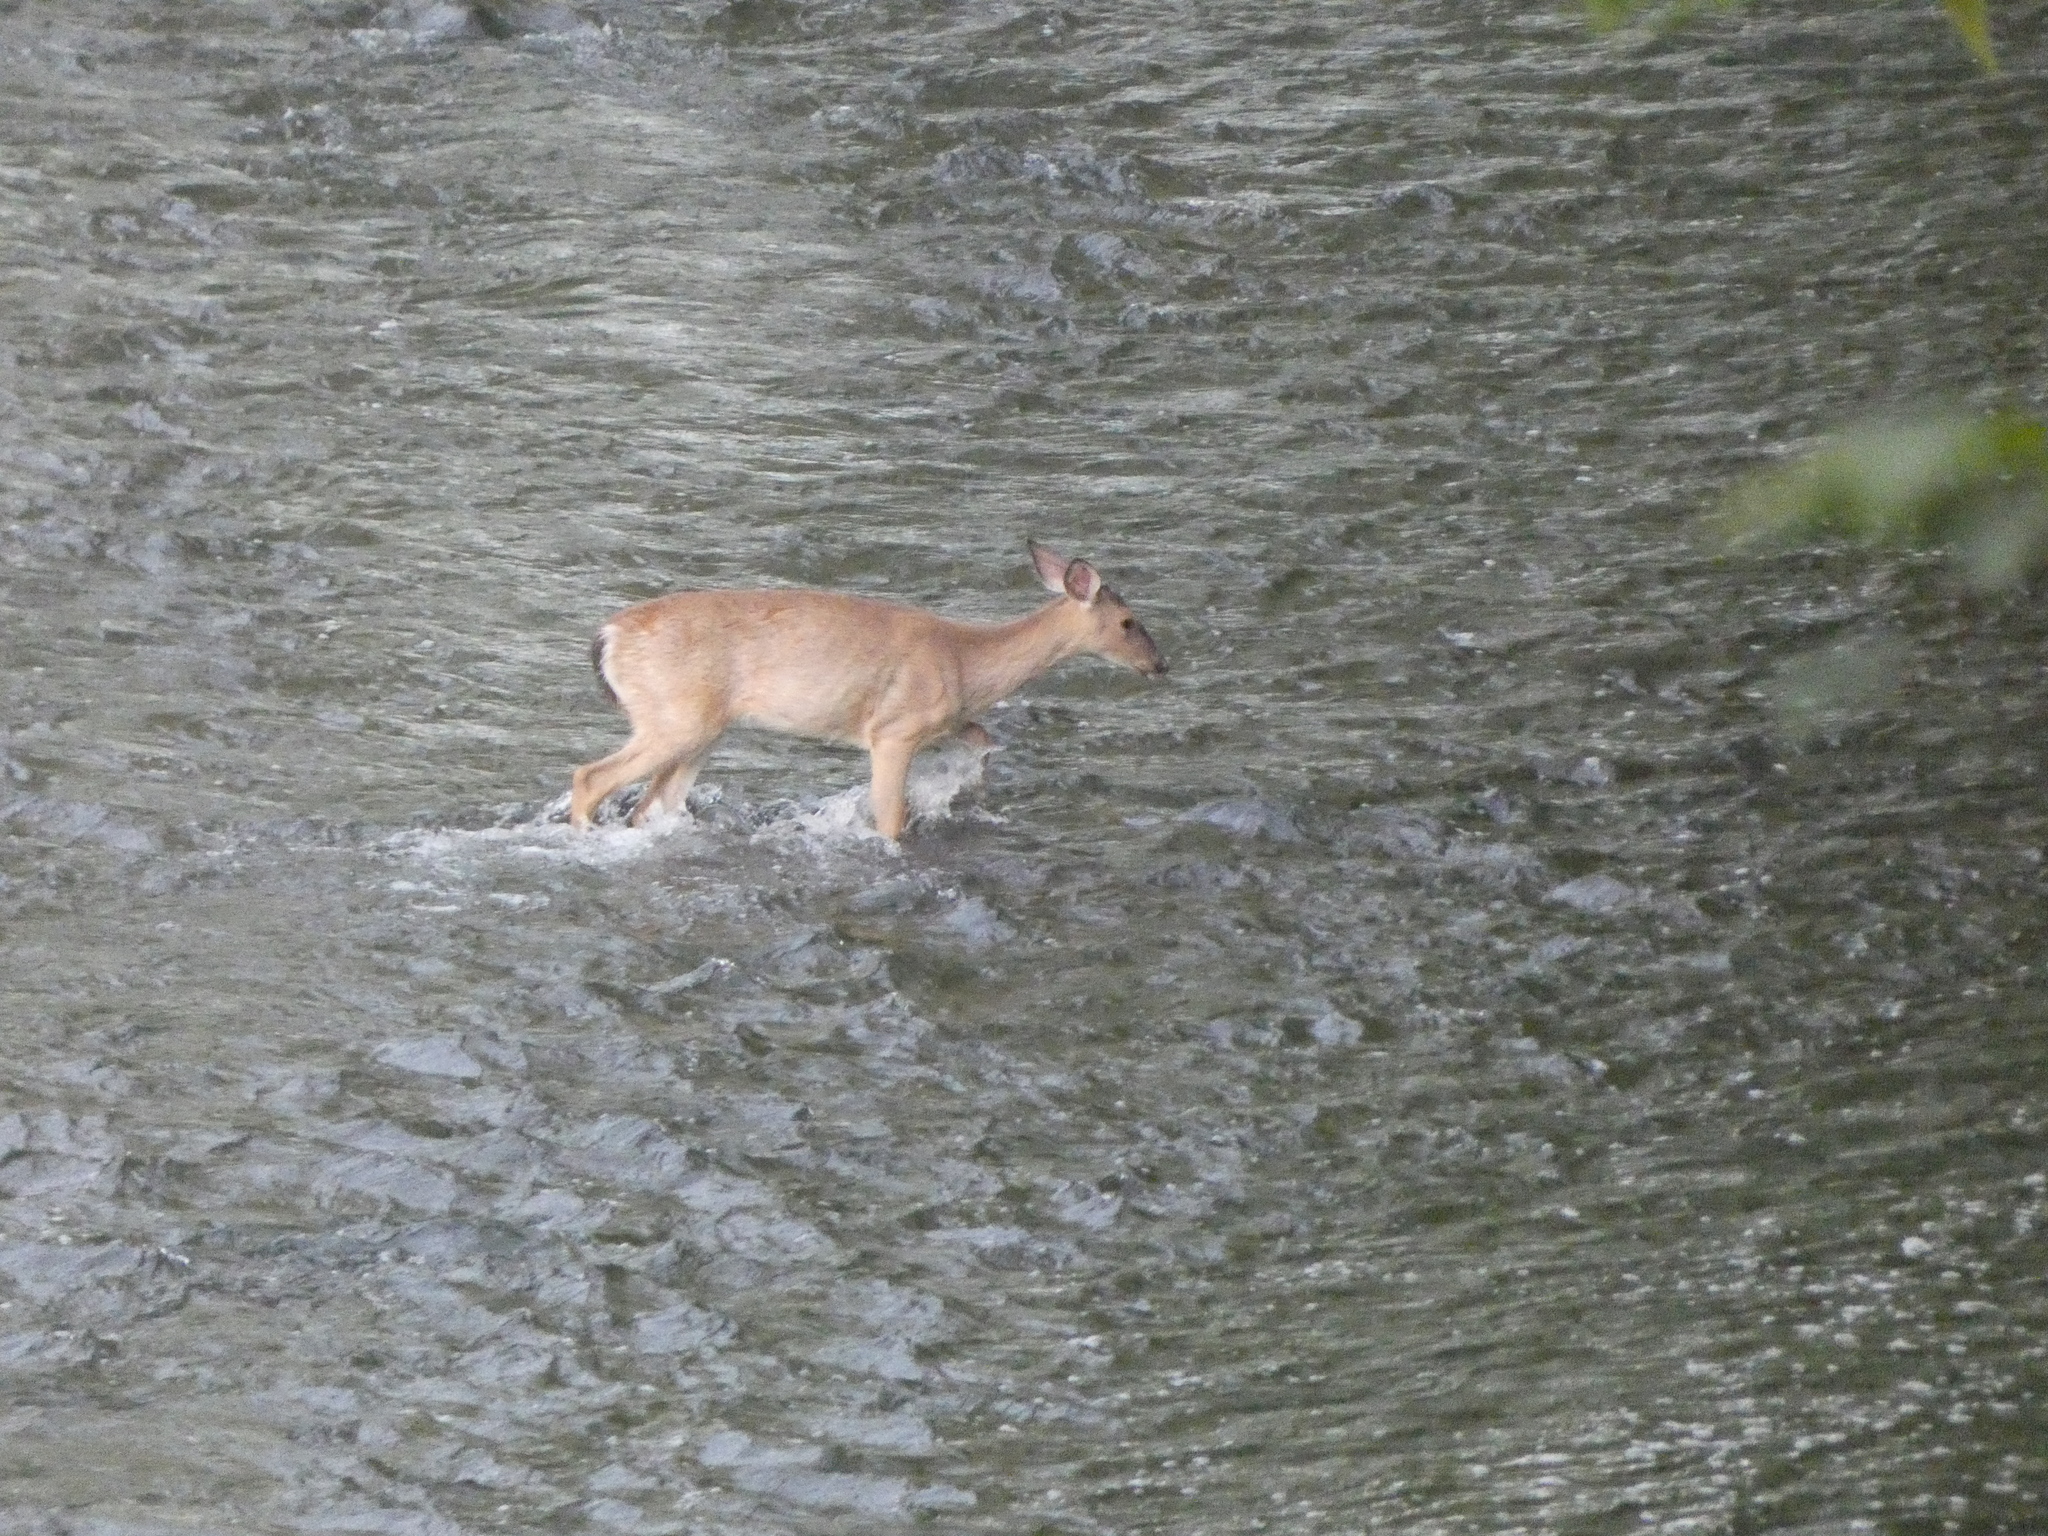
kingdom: Animalia
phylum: Chordata
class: Mammalia
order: Artiodactyla
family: Cervidae
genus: Odocoileus
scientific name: Odocoileus virginianus
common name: White-tailed deer
